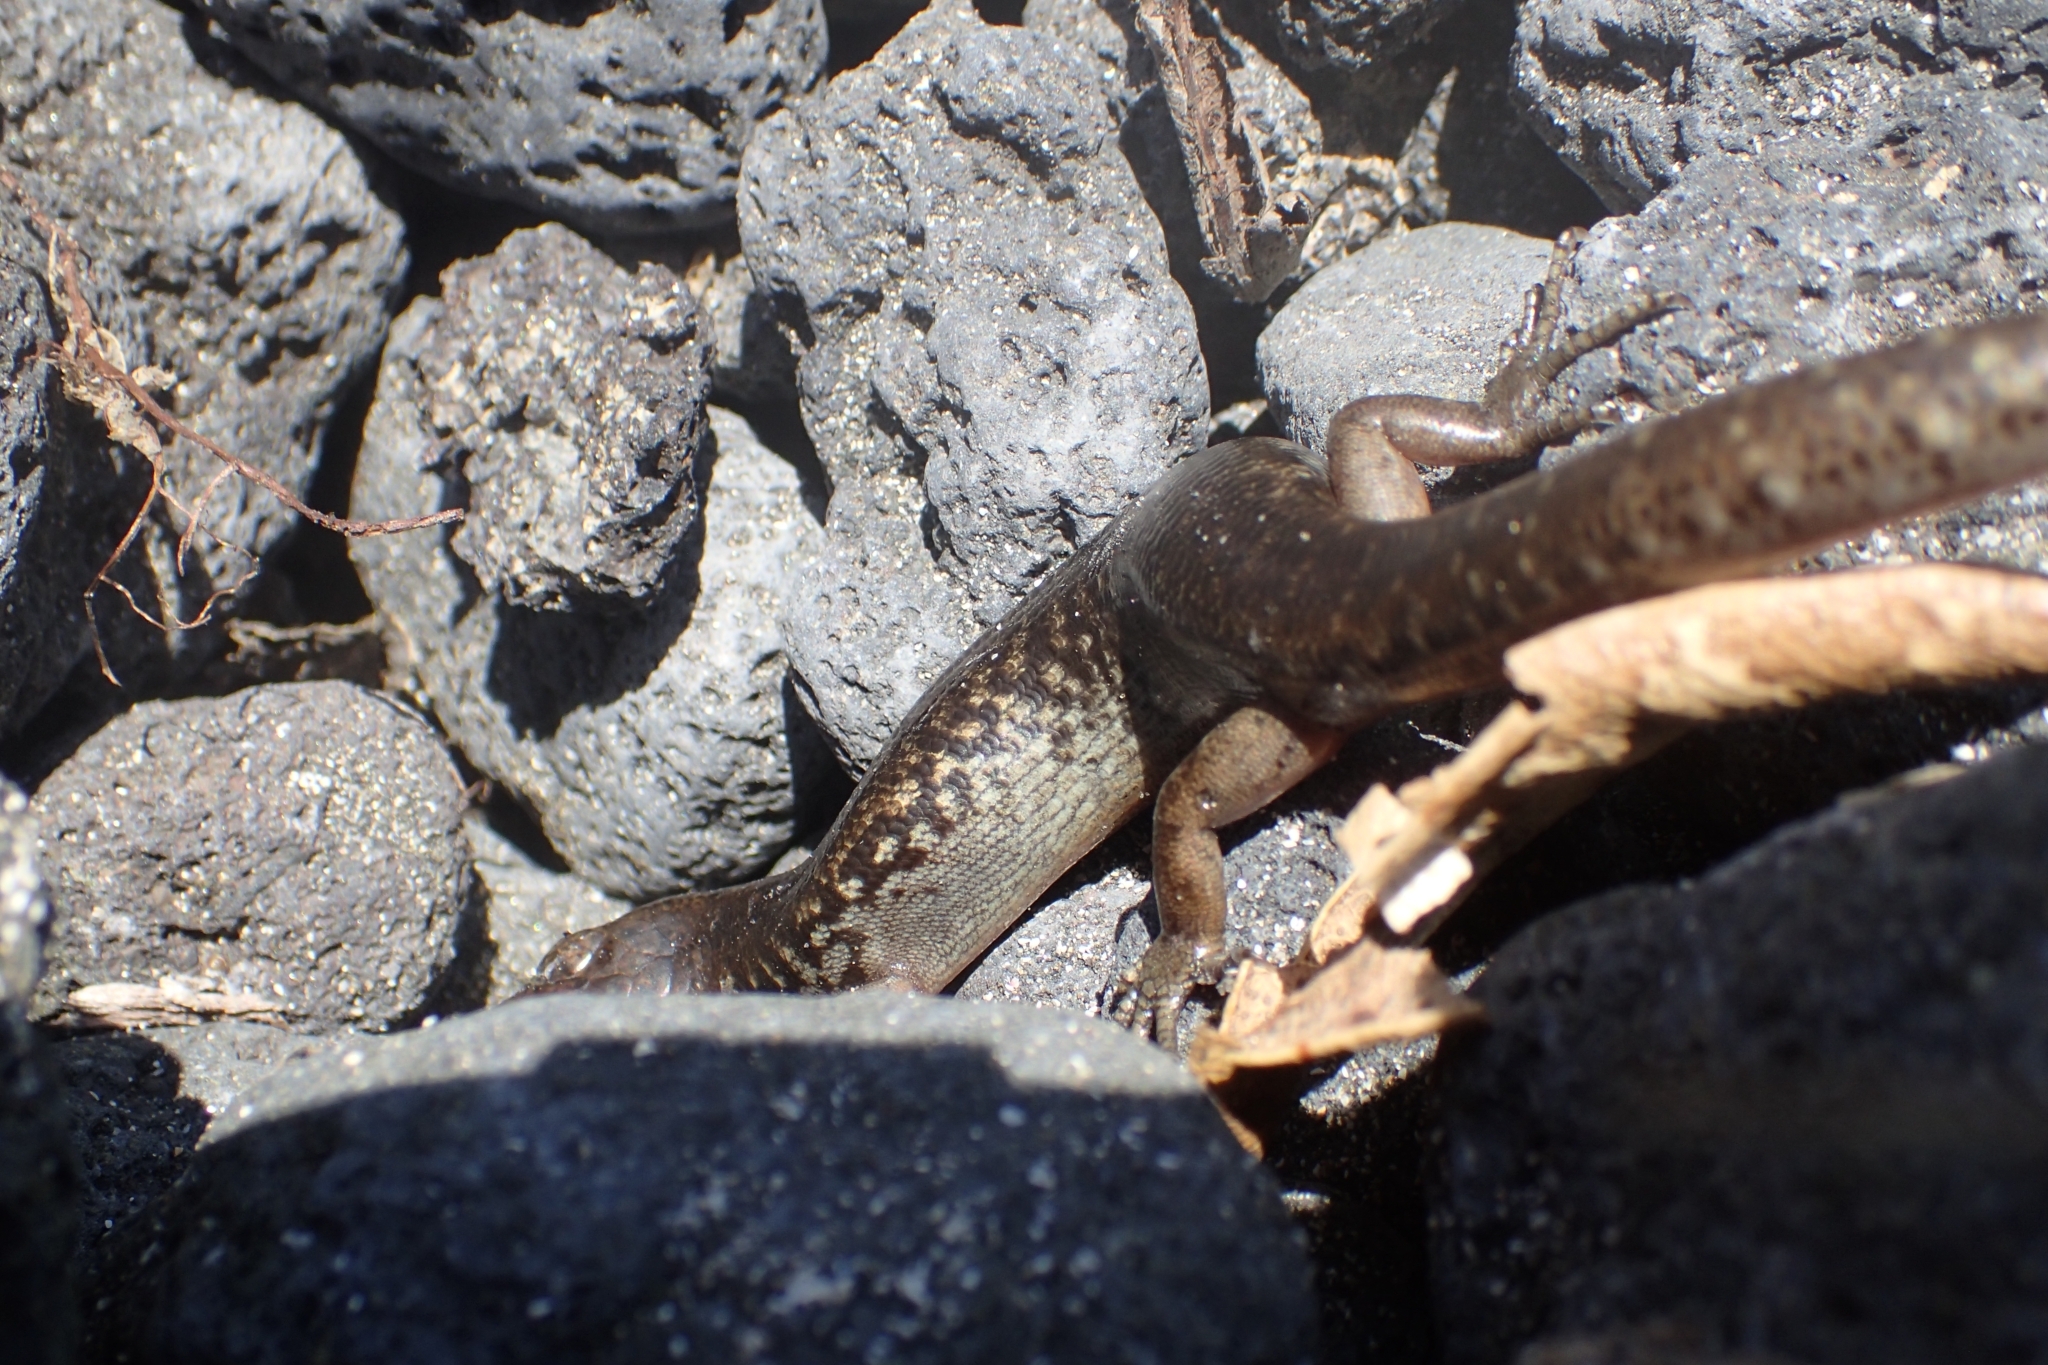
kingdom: Animalia
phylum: Chordata
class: Squamata
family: Scincidae
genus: Oligosoma
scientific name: Oligosoma suteri
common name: Egg-laying skink
